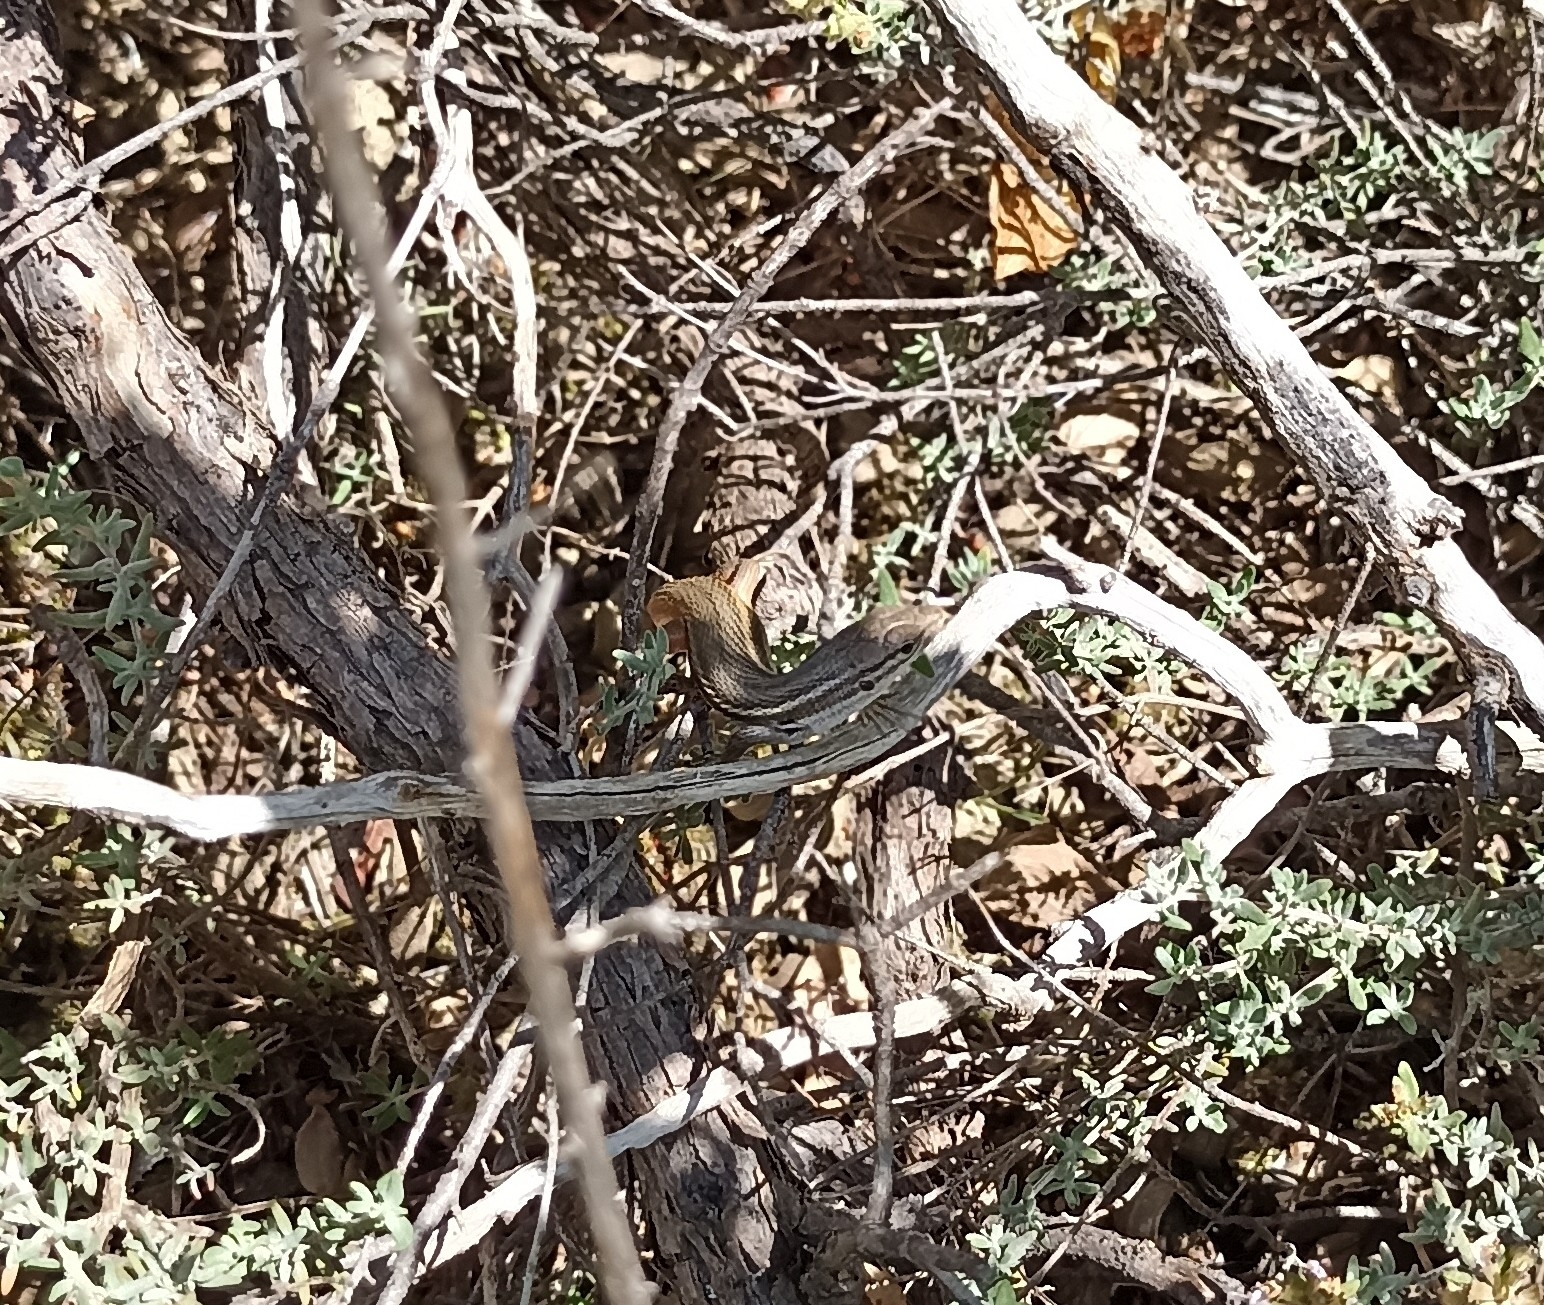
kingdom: Animalia
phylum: Chordata
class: Squamata
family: Lacertidae
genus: Psammodromus
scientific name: Psammodromus algirus
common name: Algerian psammodromus
